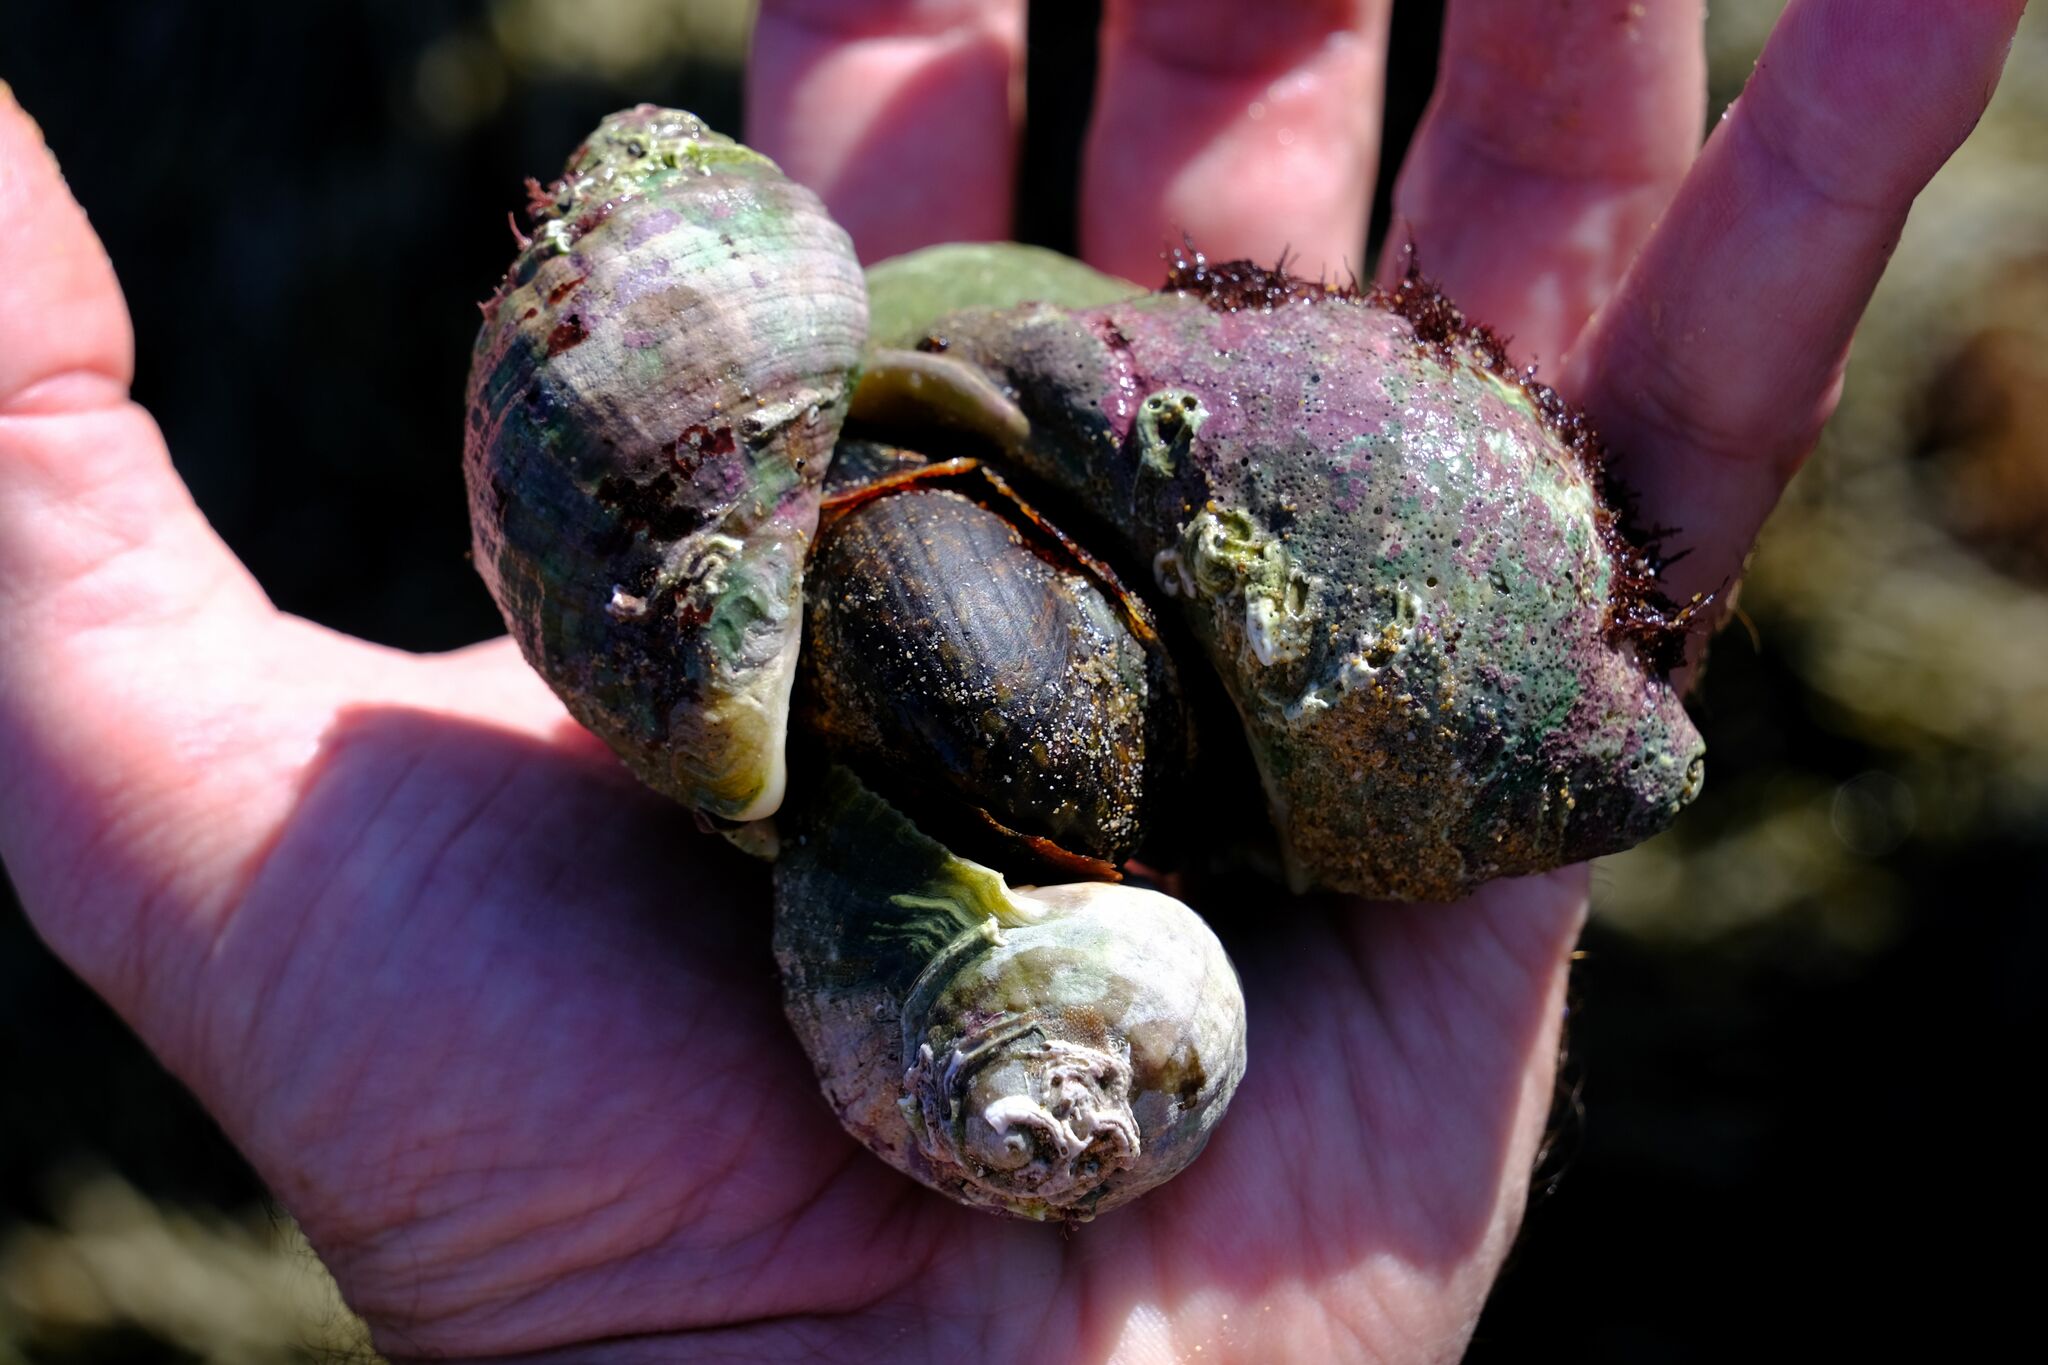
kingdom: Animalia
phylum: Mollusca
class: Gastropoda
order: Neogastropoda
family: Muricidae
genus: Dicathais
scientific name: Dicathais orbita
